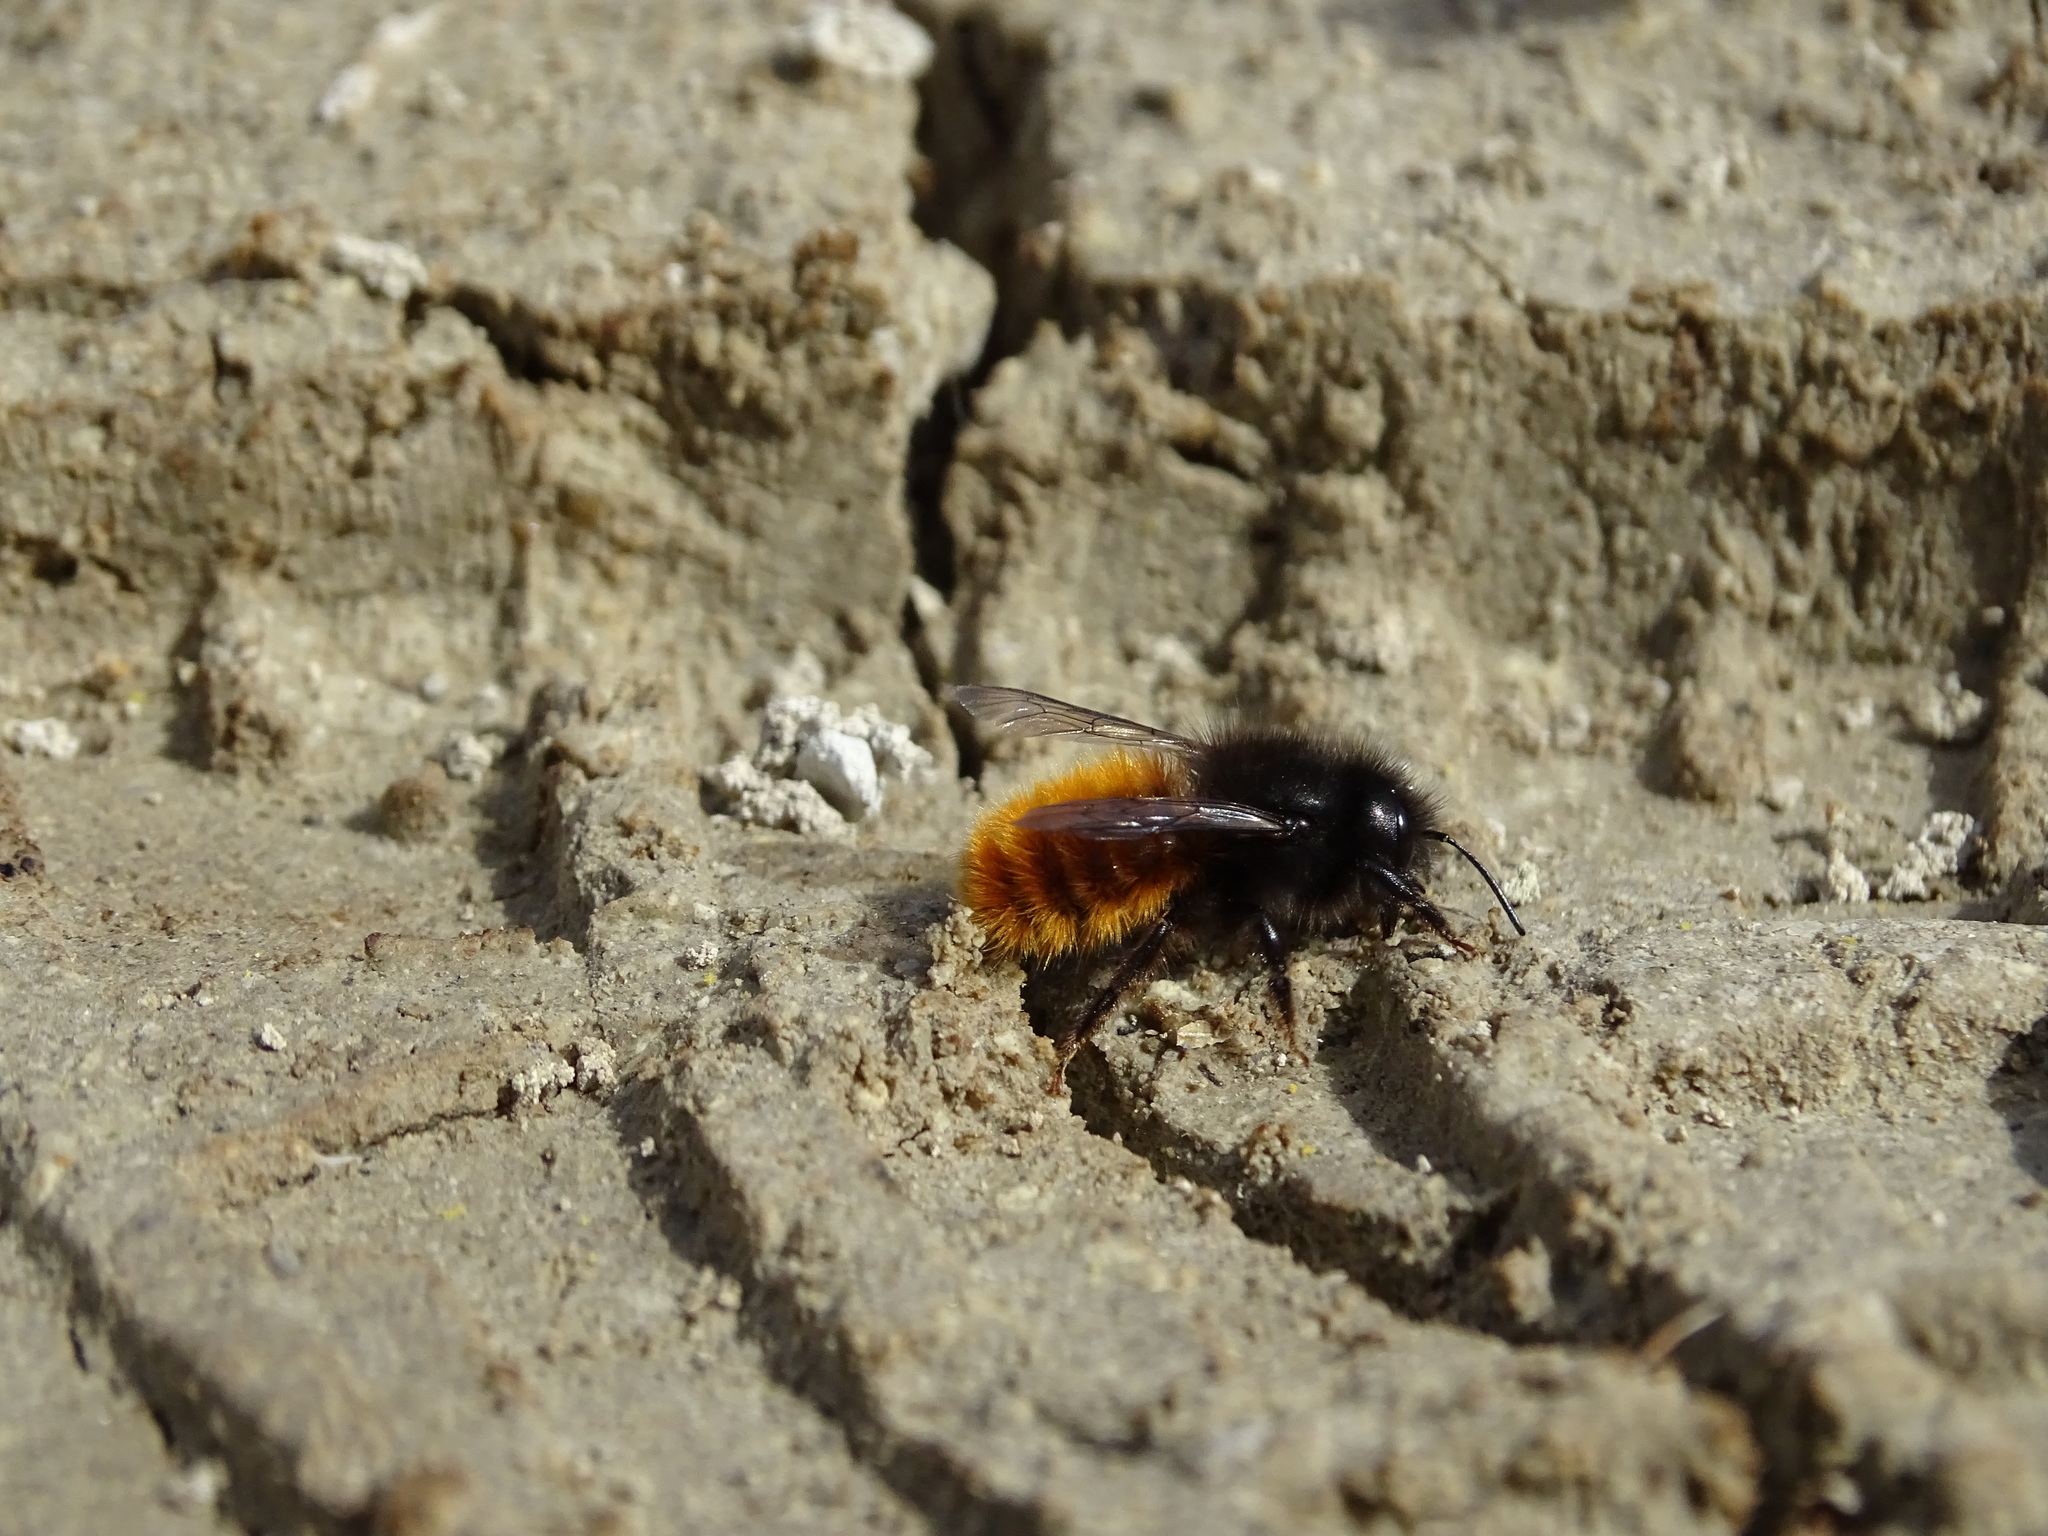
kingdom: Animalia
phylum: Arthropoda
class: Insecta
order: Hymenoptera
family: Megachilidae
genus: Osmia
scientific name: Osmia cornuta
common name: Mason bee
